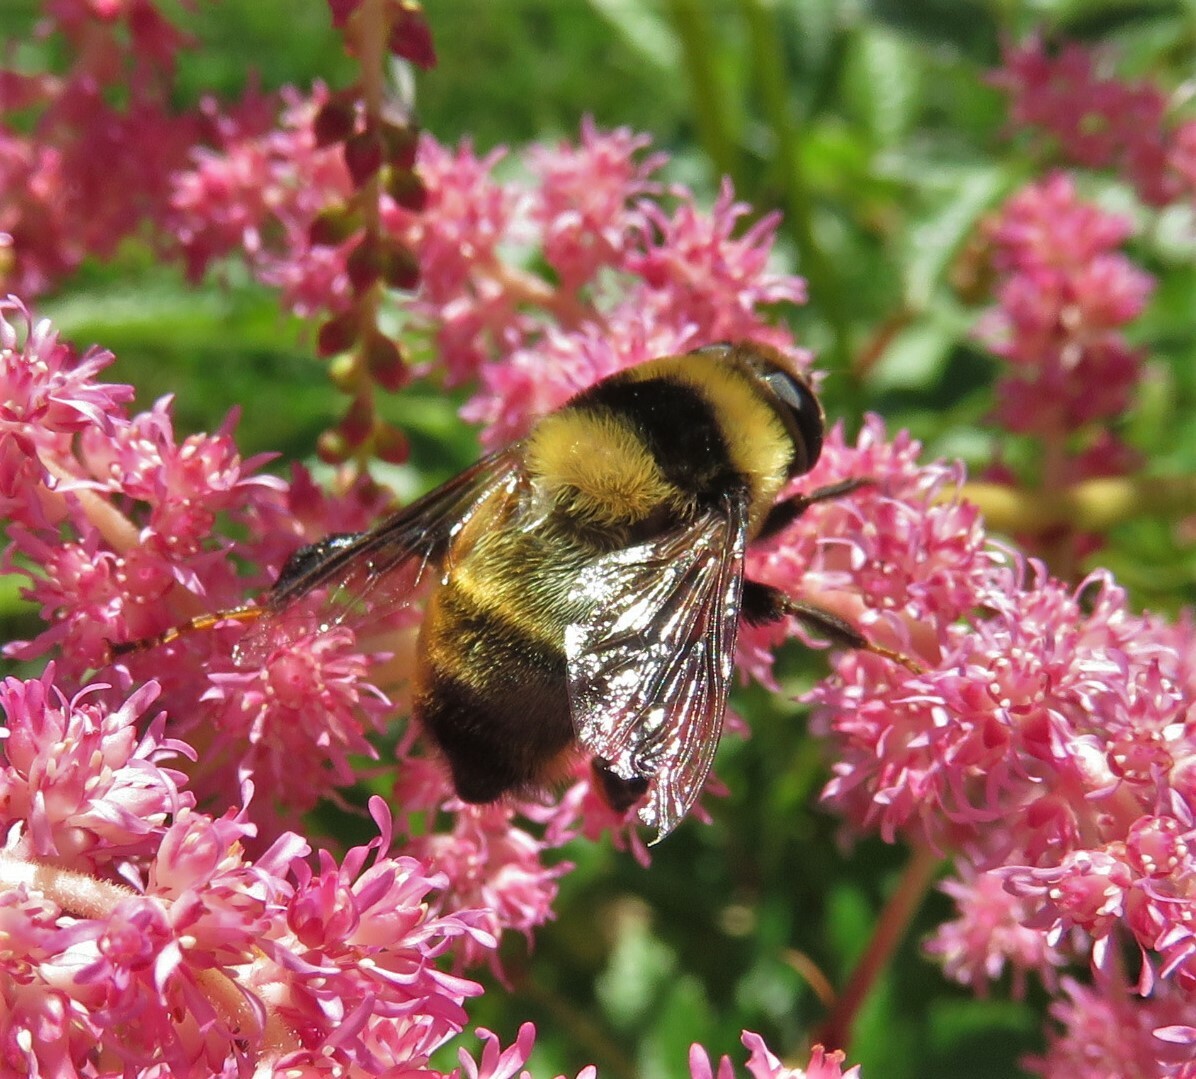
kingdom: Animalia
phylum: Arthropoda
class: Insecta
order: Diptera
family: Syrphidae
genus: Eristalis
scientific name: Eristalis flavipes
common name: Orange-legged drone fly
